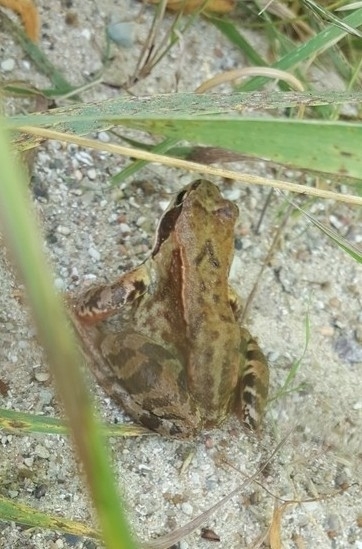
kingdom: Animalia
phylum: Chordata
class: Amphibia
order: Anura
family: Ranidae
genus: Rana
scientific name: Rana temporaria
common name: Common frog
